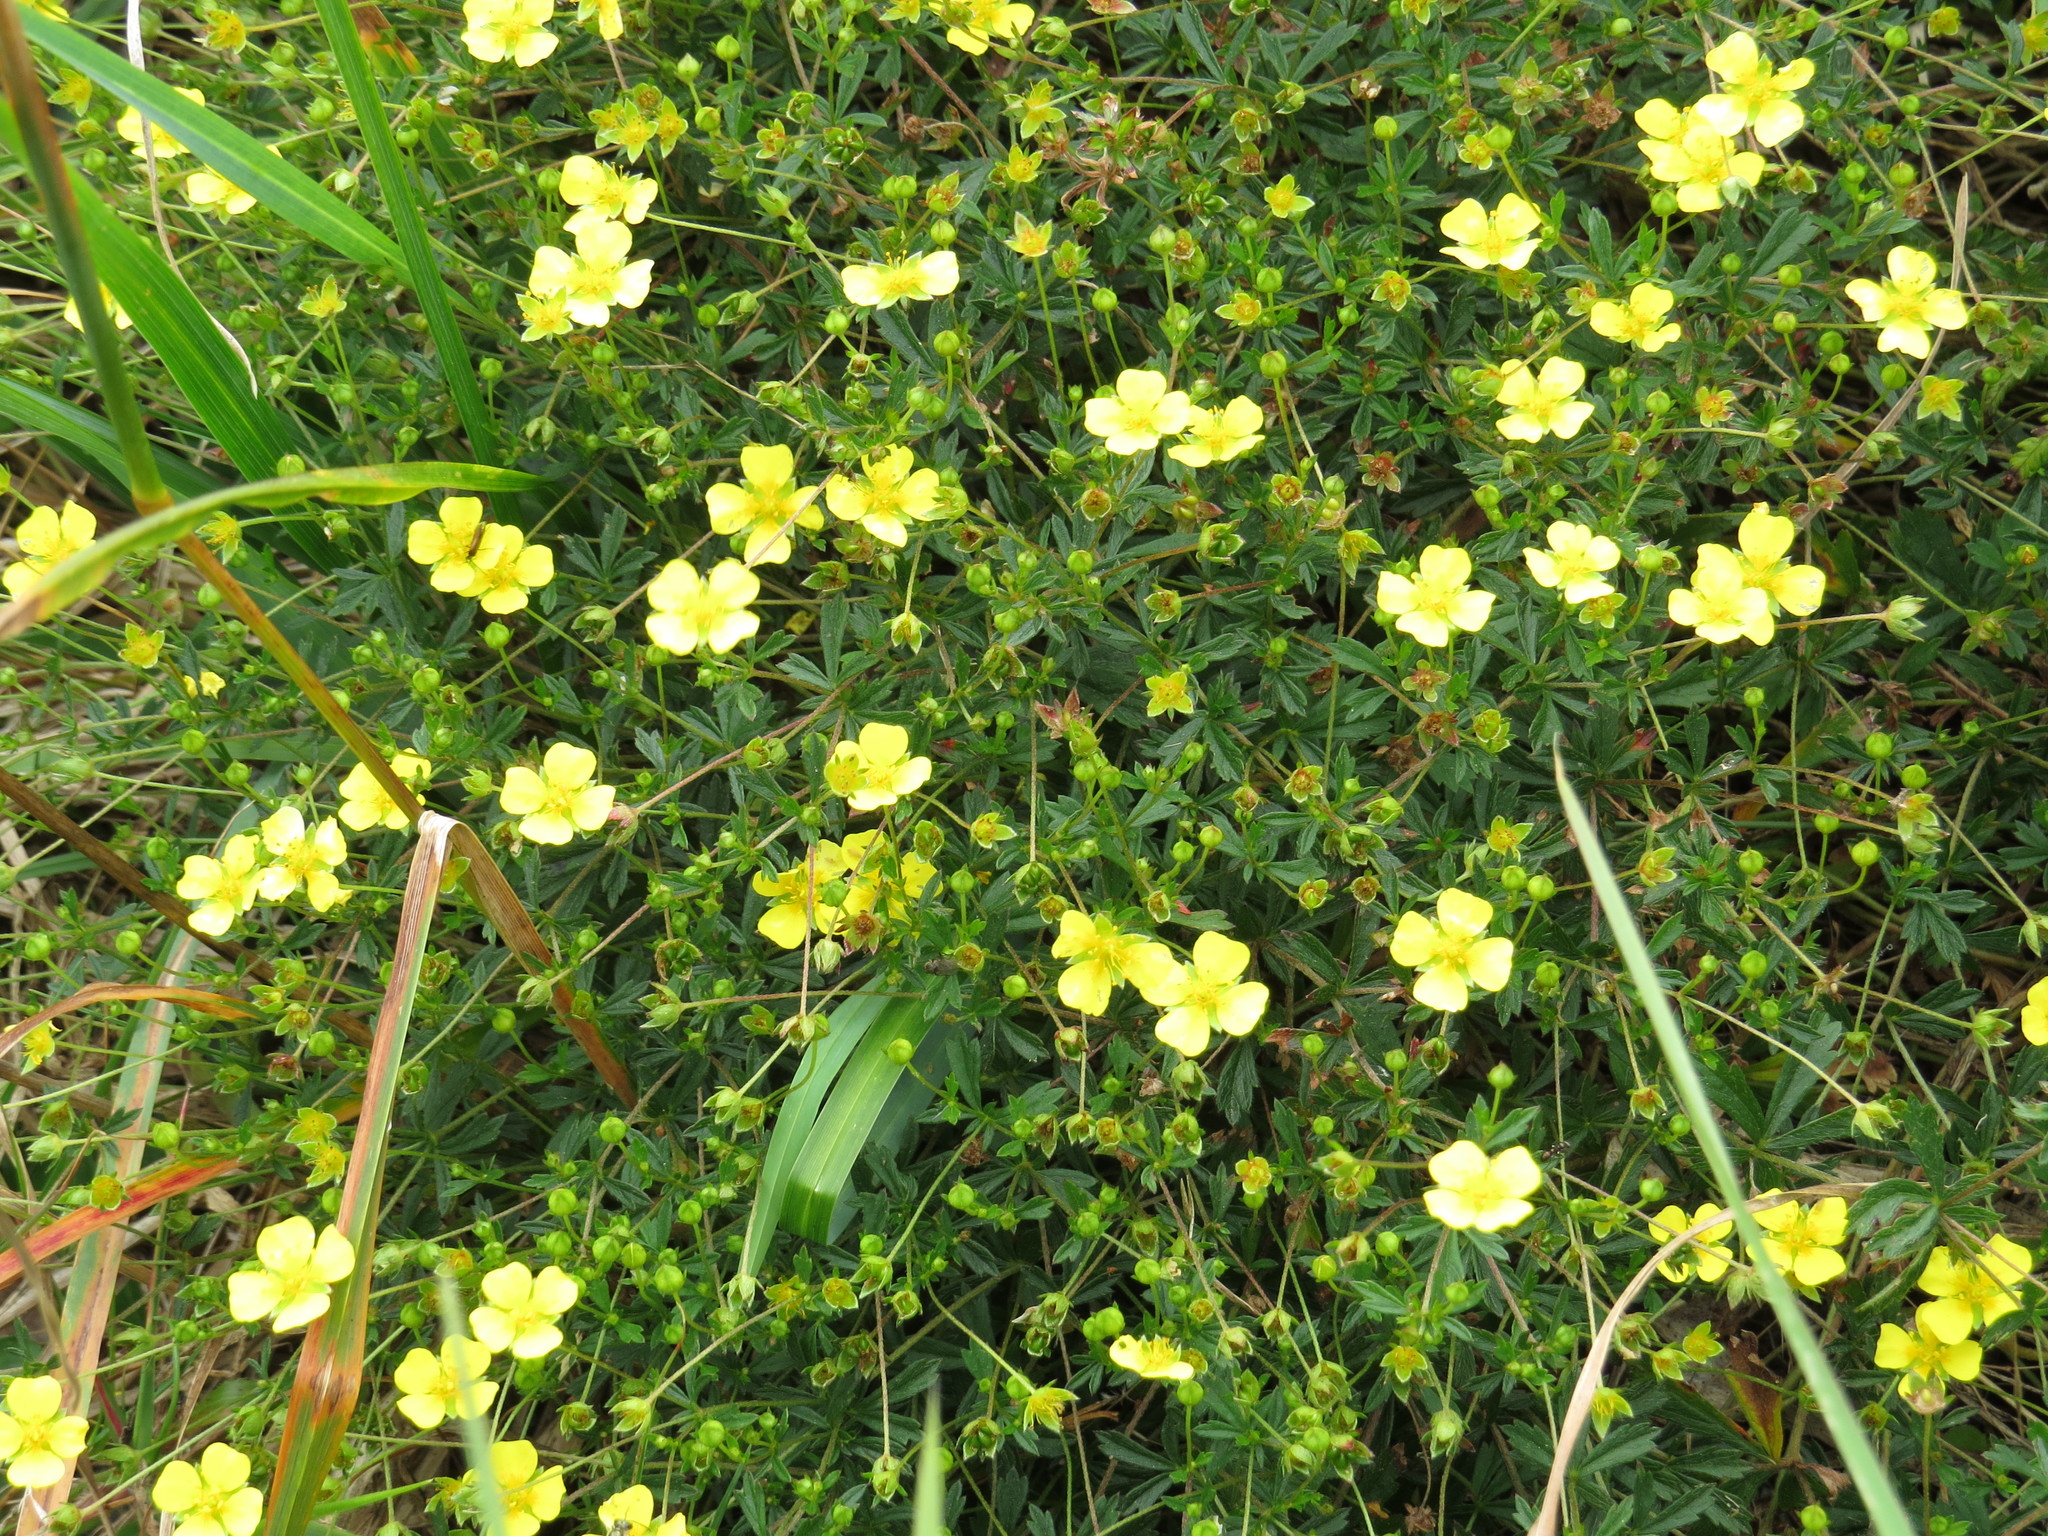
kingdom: Plantae
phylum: Tracheophyta
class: Magnoliopsida
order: Rosales
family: Rosaceae
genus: Potentilla
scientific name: Potentilla erecta
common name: Tormentil
